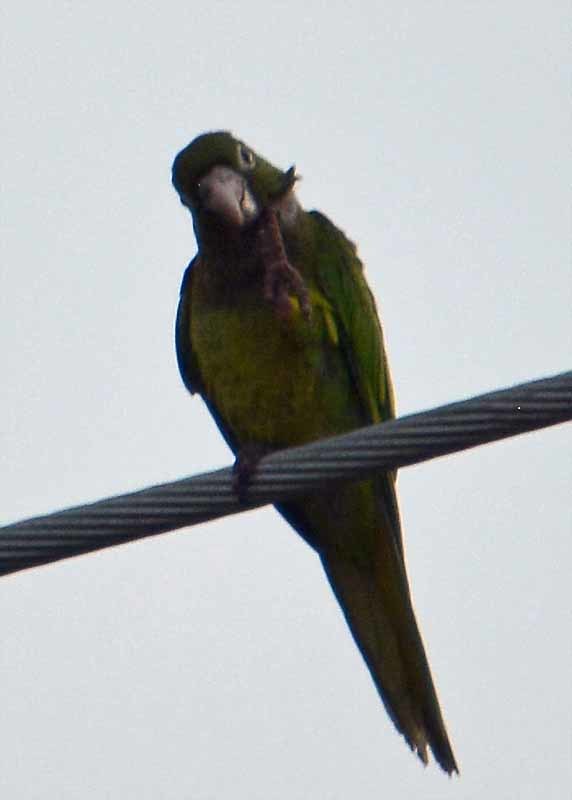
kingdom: Animalia
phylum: Chordata
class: Aves
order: Psittaciformes
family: Psittacidae
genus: Aratinga
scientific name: Aratinga nana
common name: Olive-throated parakeet
